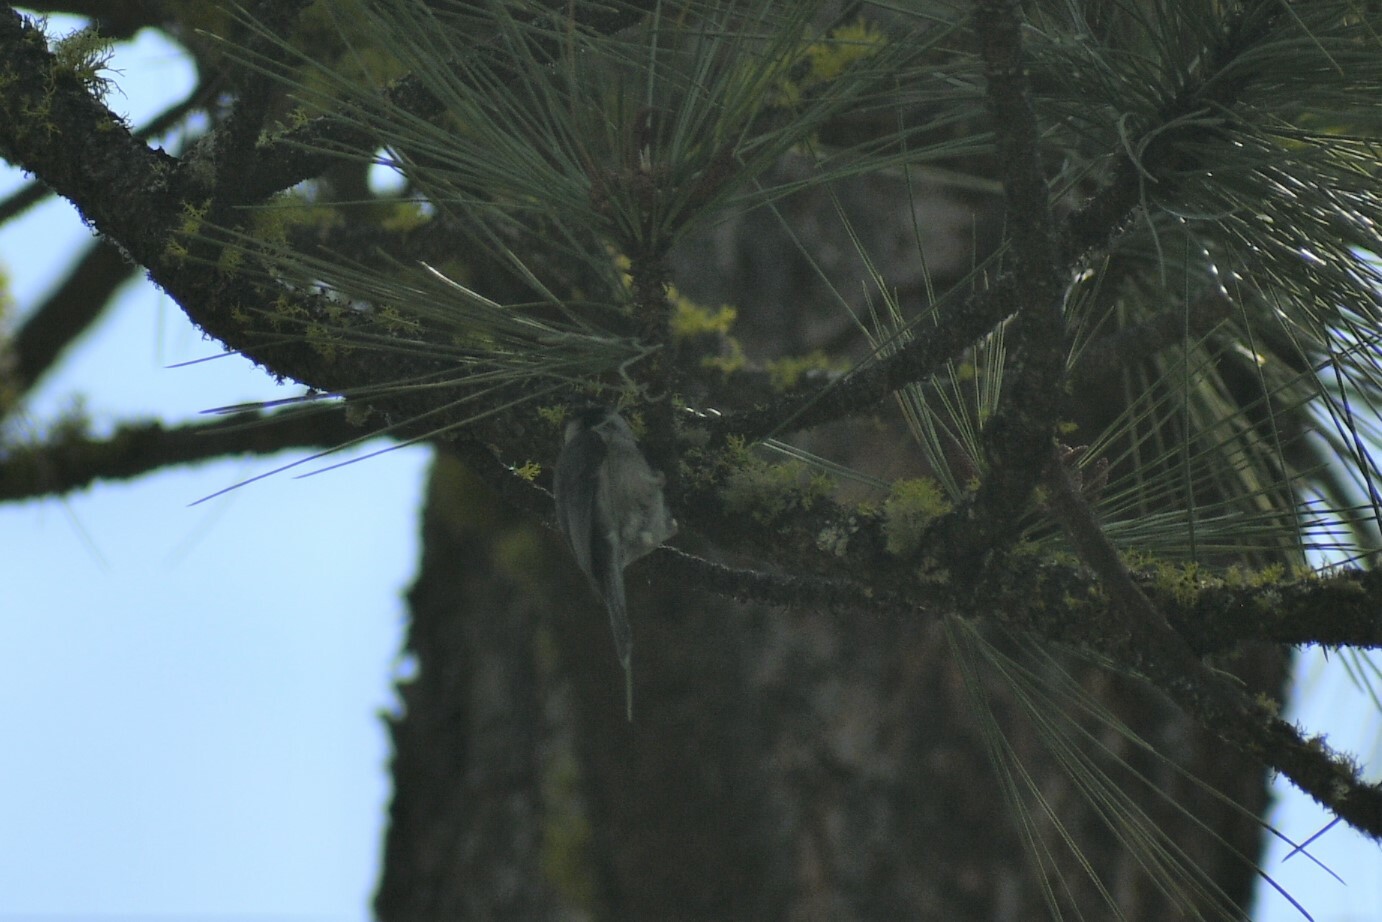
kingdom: Animalia
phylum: Chordata
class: Aves
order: Passeriformes
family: Paridae
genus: Poecile
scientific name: Poecile gambeli
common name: Mountain chickadee
